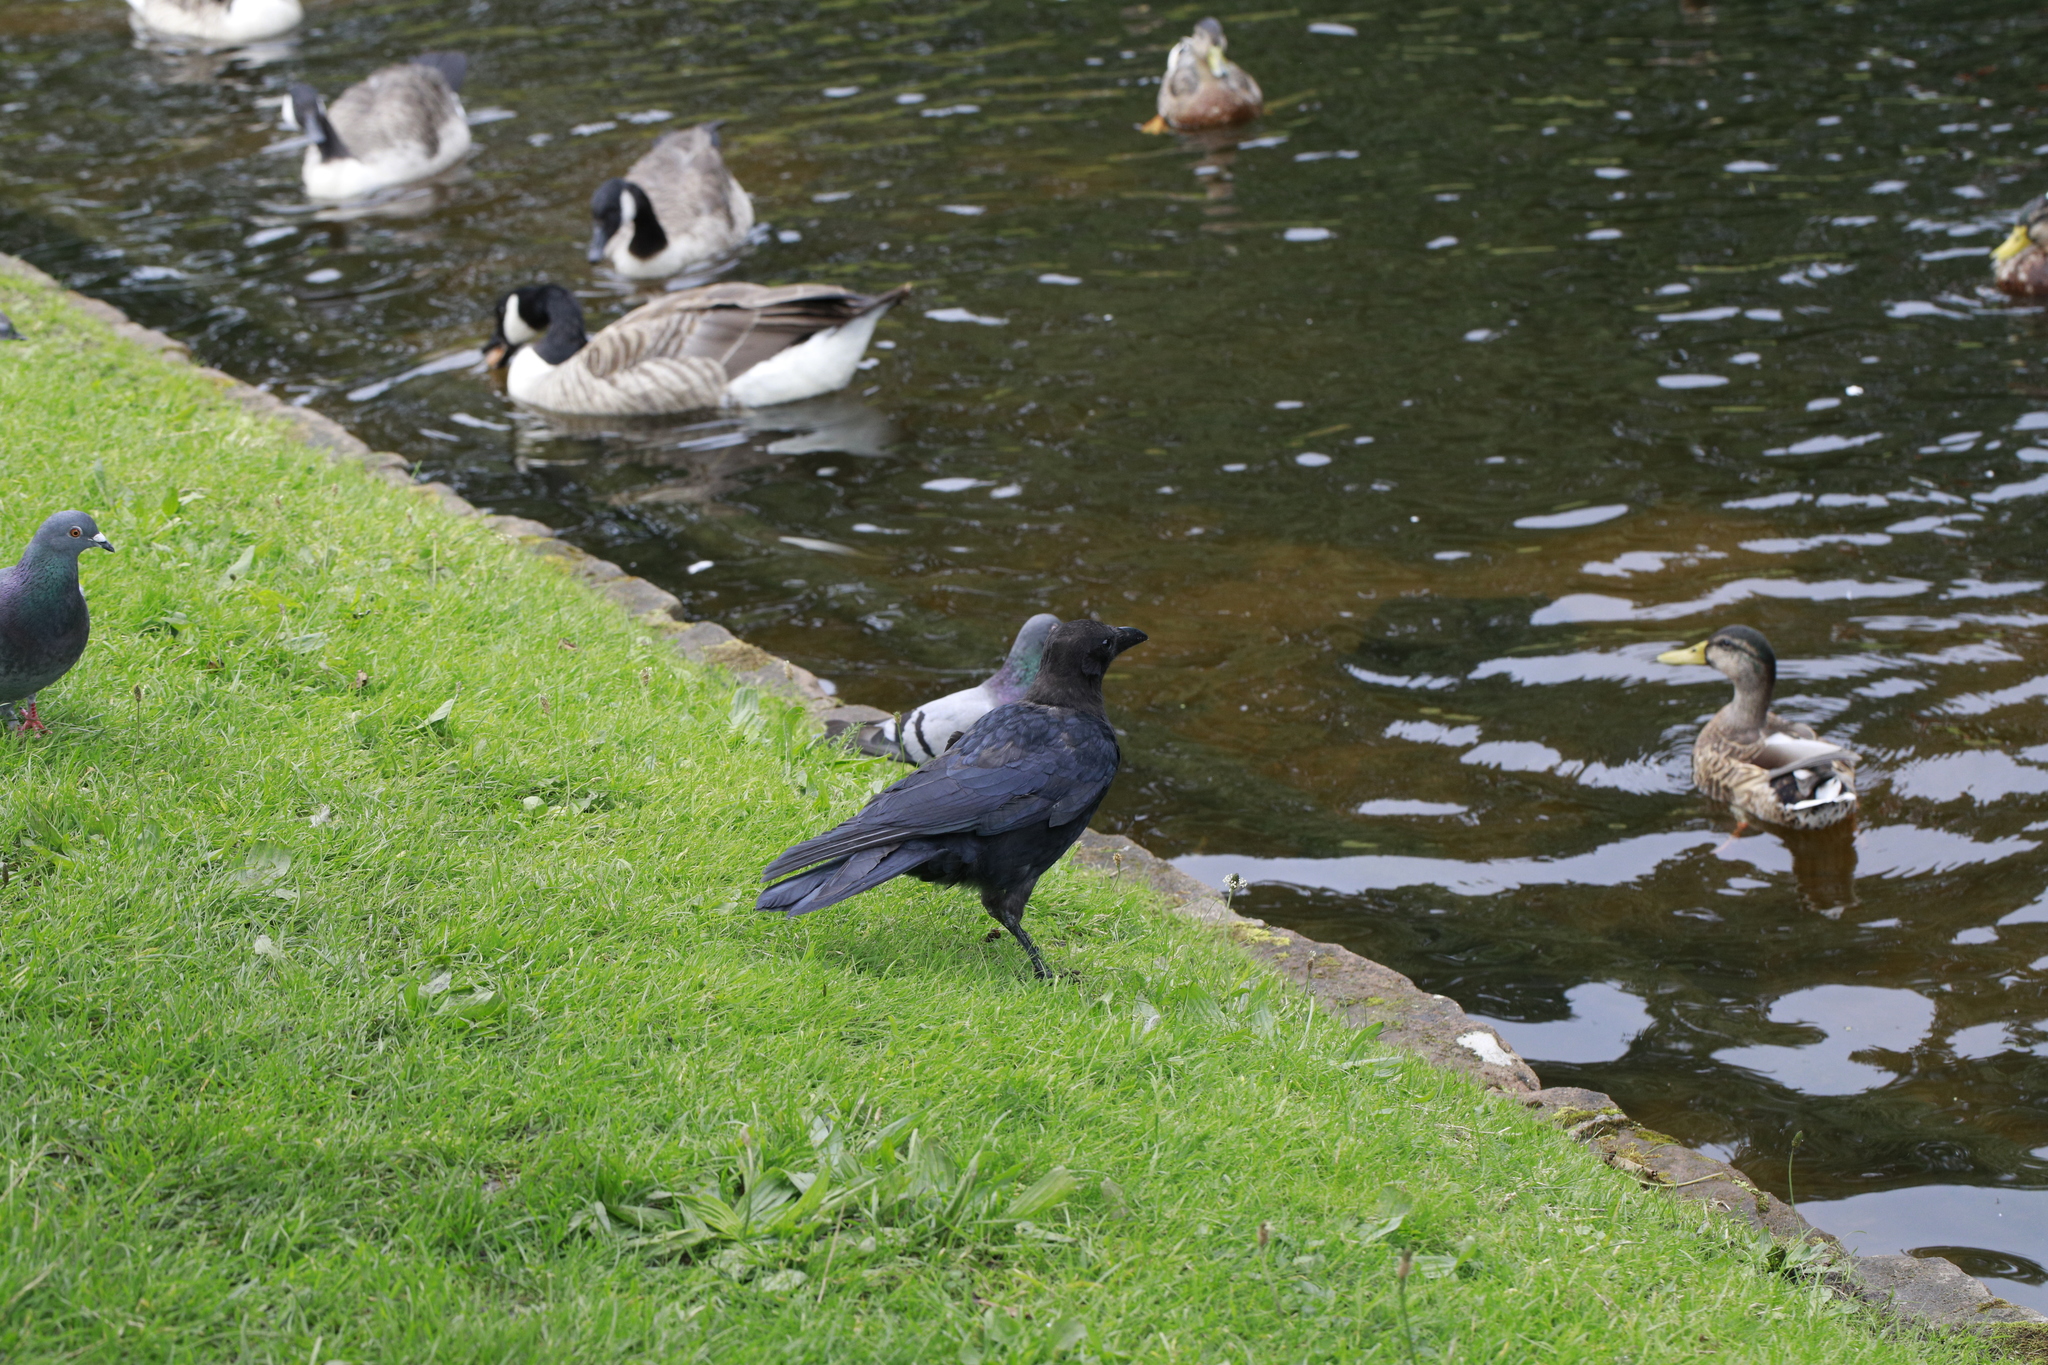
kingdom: Animalia
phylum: Chordata
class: Aves
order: Passeriformes
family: Corvidae
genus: Corvus
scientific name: Corvus corone
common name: Carrion crow
